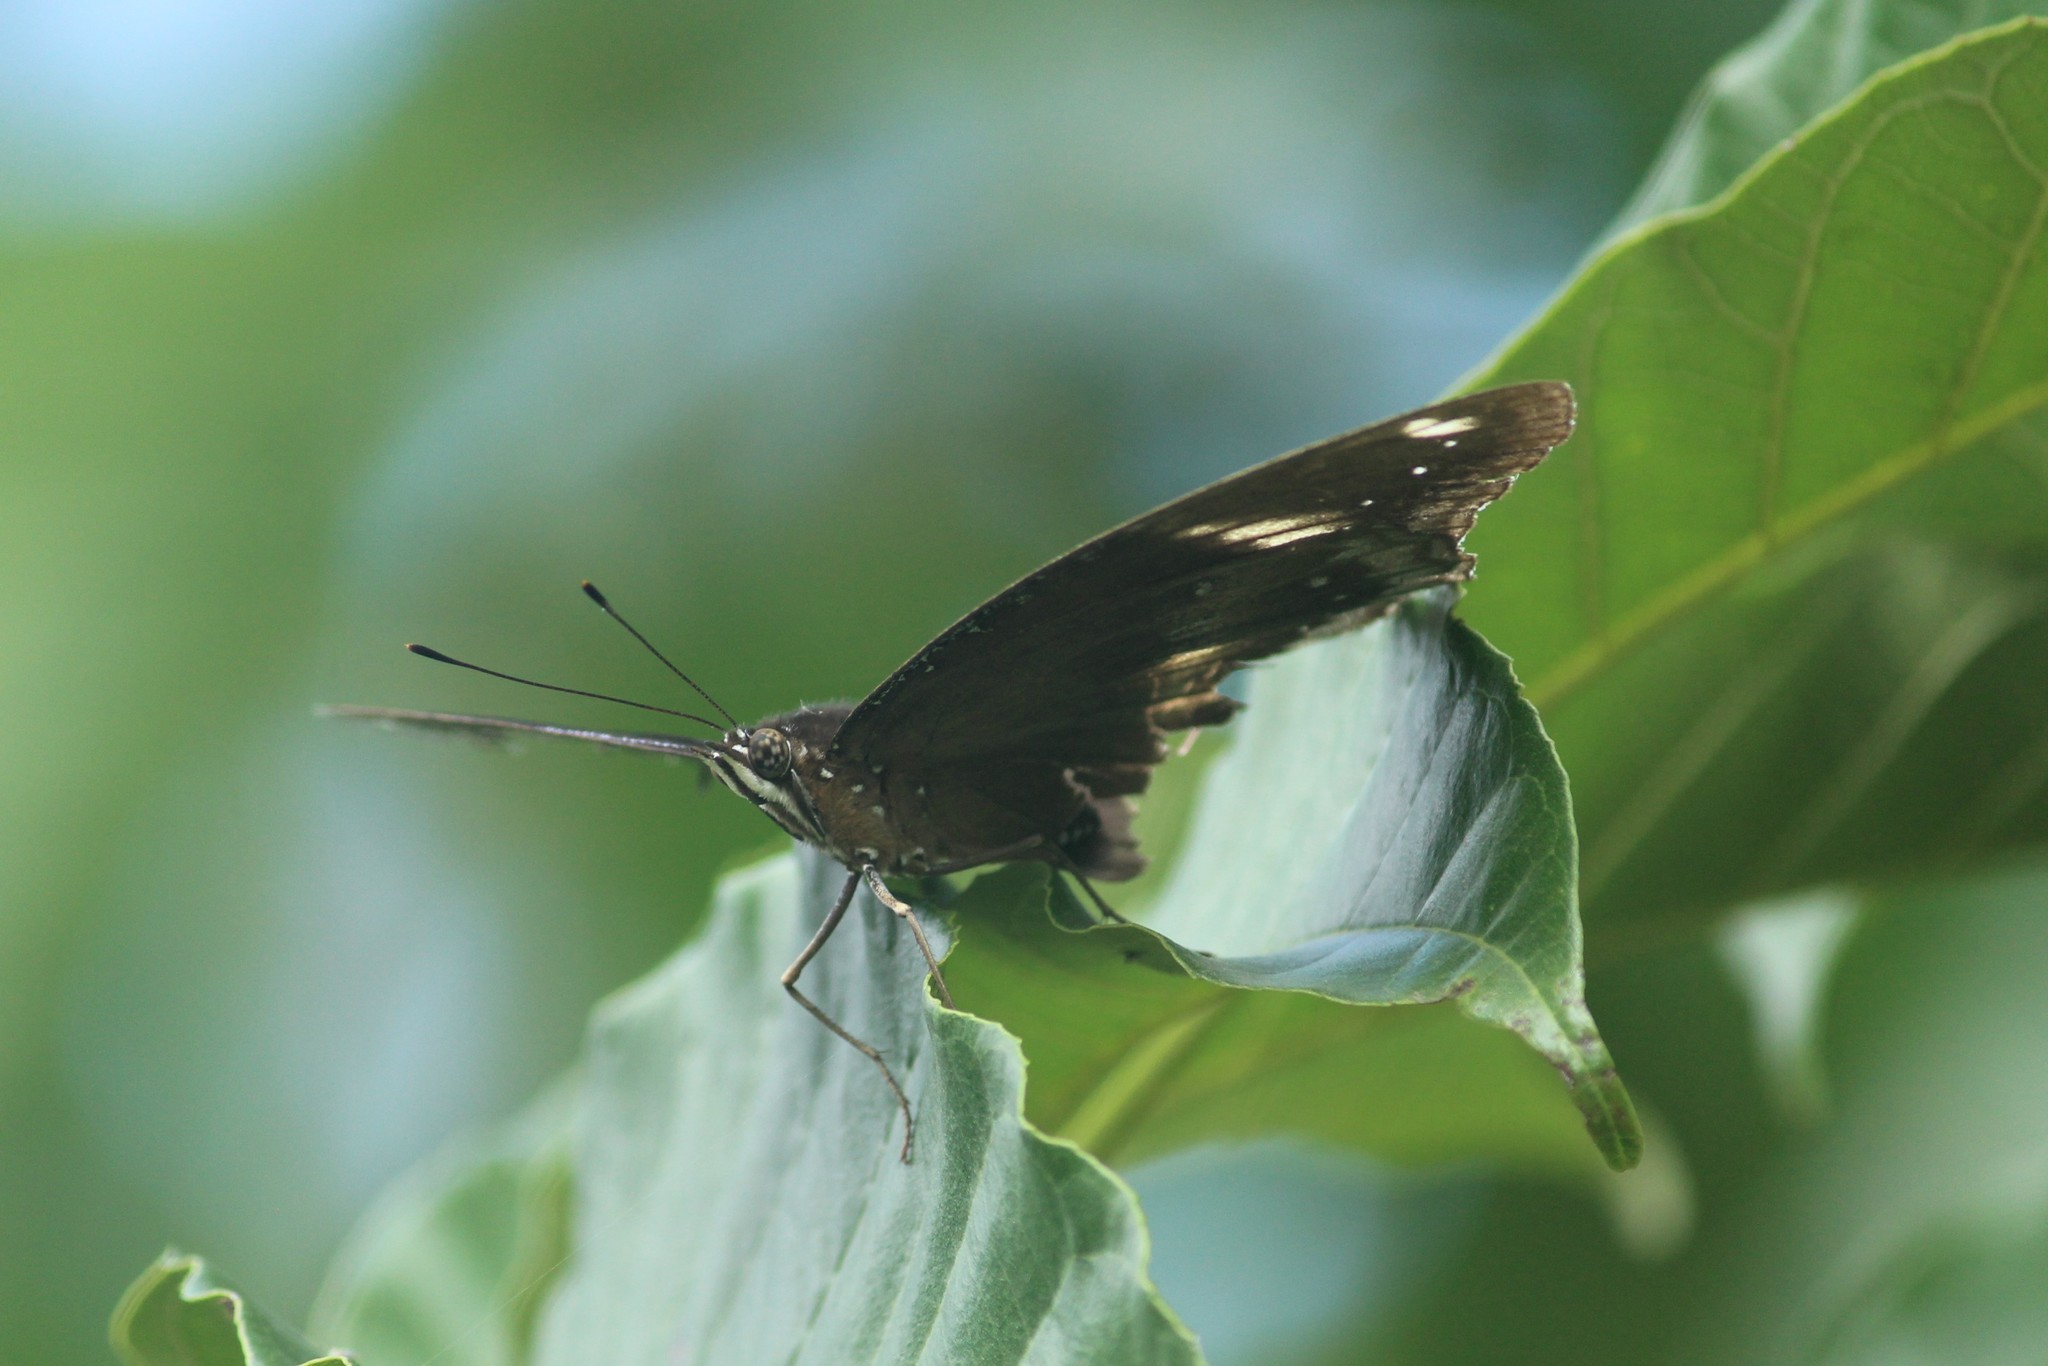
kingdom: Animalia
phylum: Arthropoda
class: Insecta
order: Lepidoptera
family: Nymphalidae
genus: Hypolimnas
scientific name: Hypolimnas bolina
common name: Great eggfly
